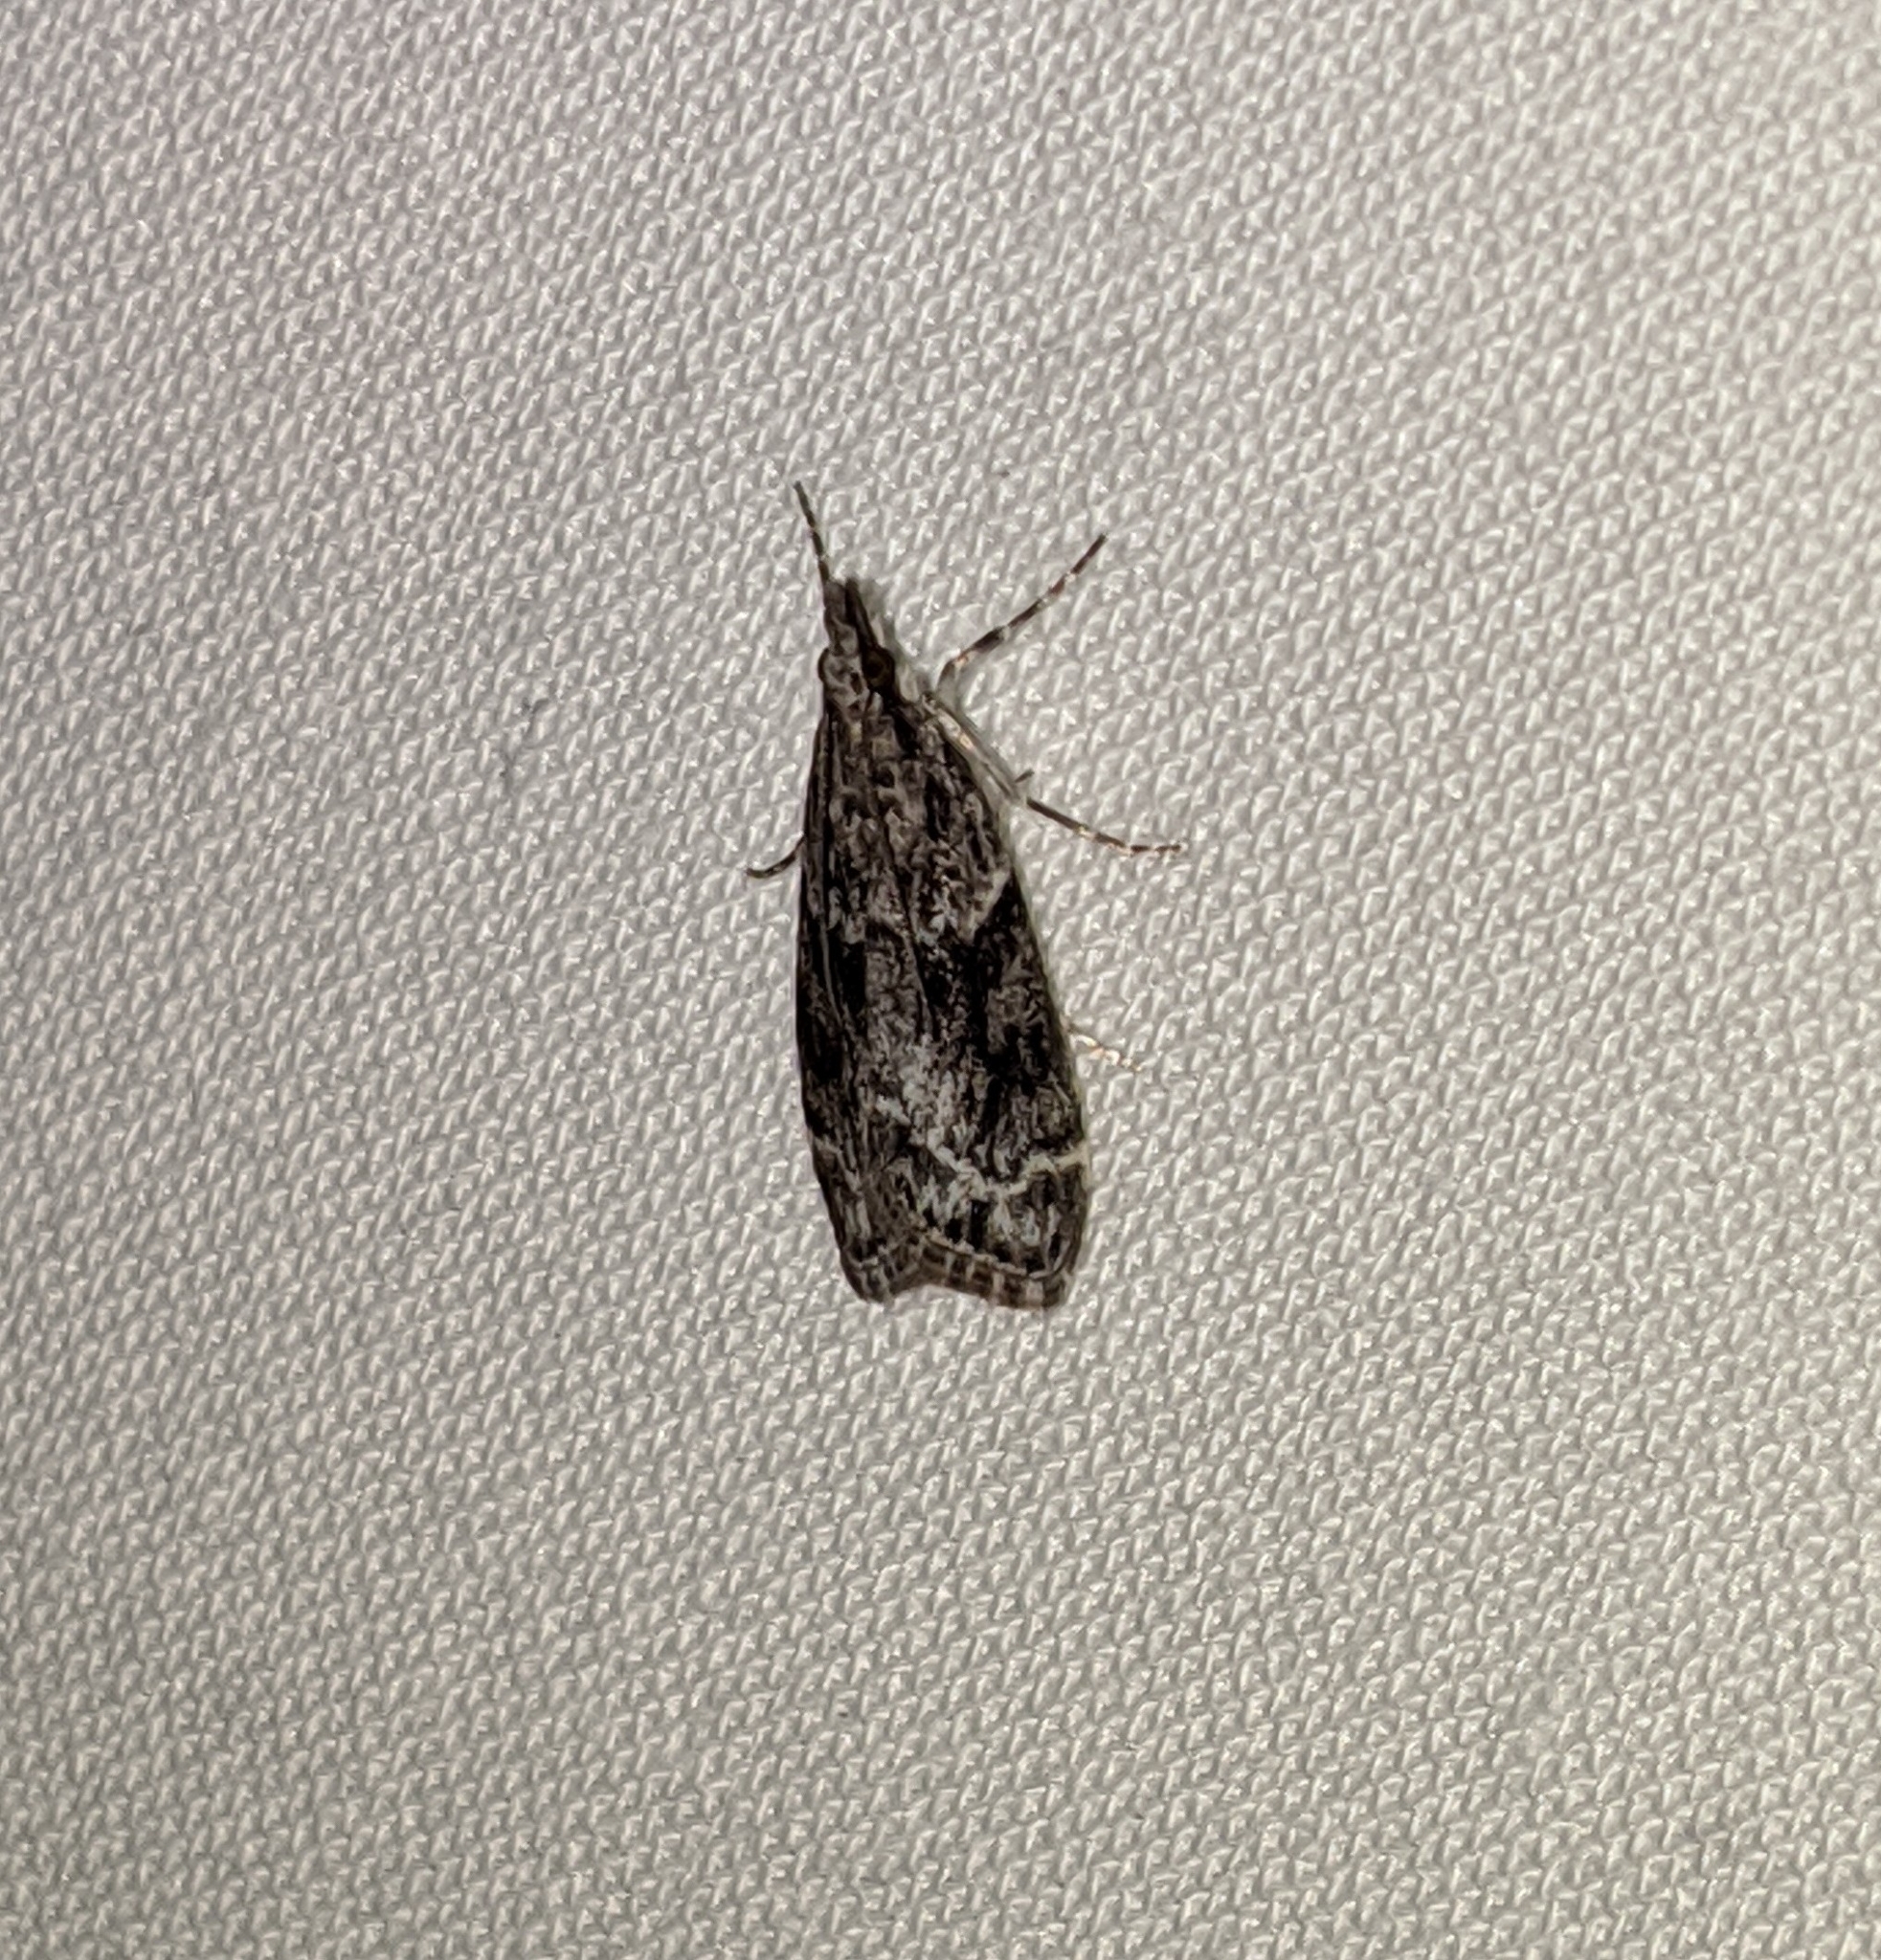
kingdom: Animalia
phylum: Arthropoda
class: Insecta
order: Lepidoptera
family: Crambidae
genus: Scoparia
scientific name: Scoparia biplagialis
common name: Double-striped scoparia moth
